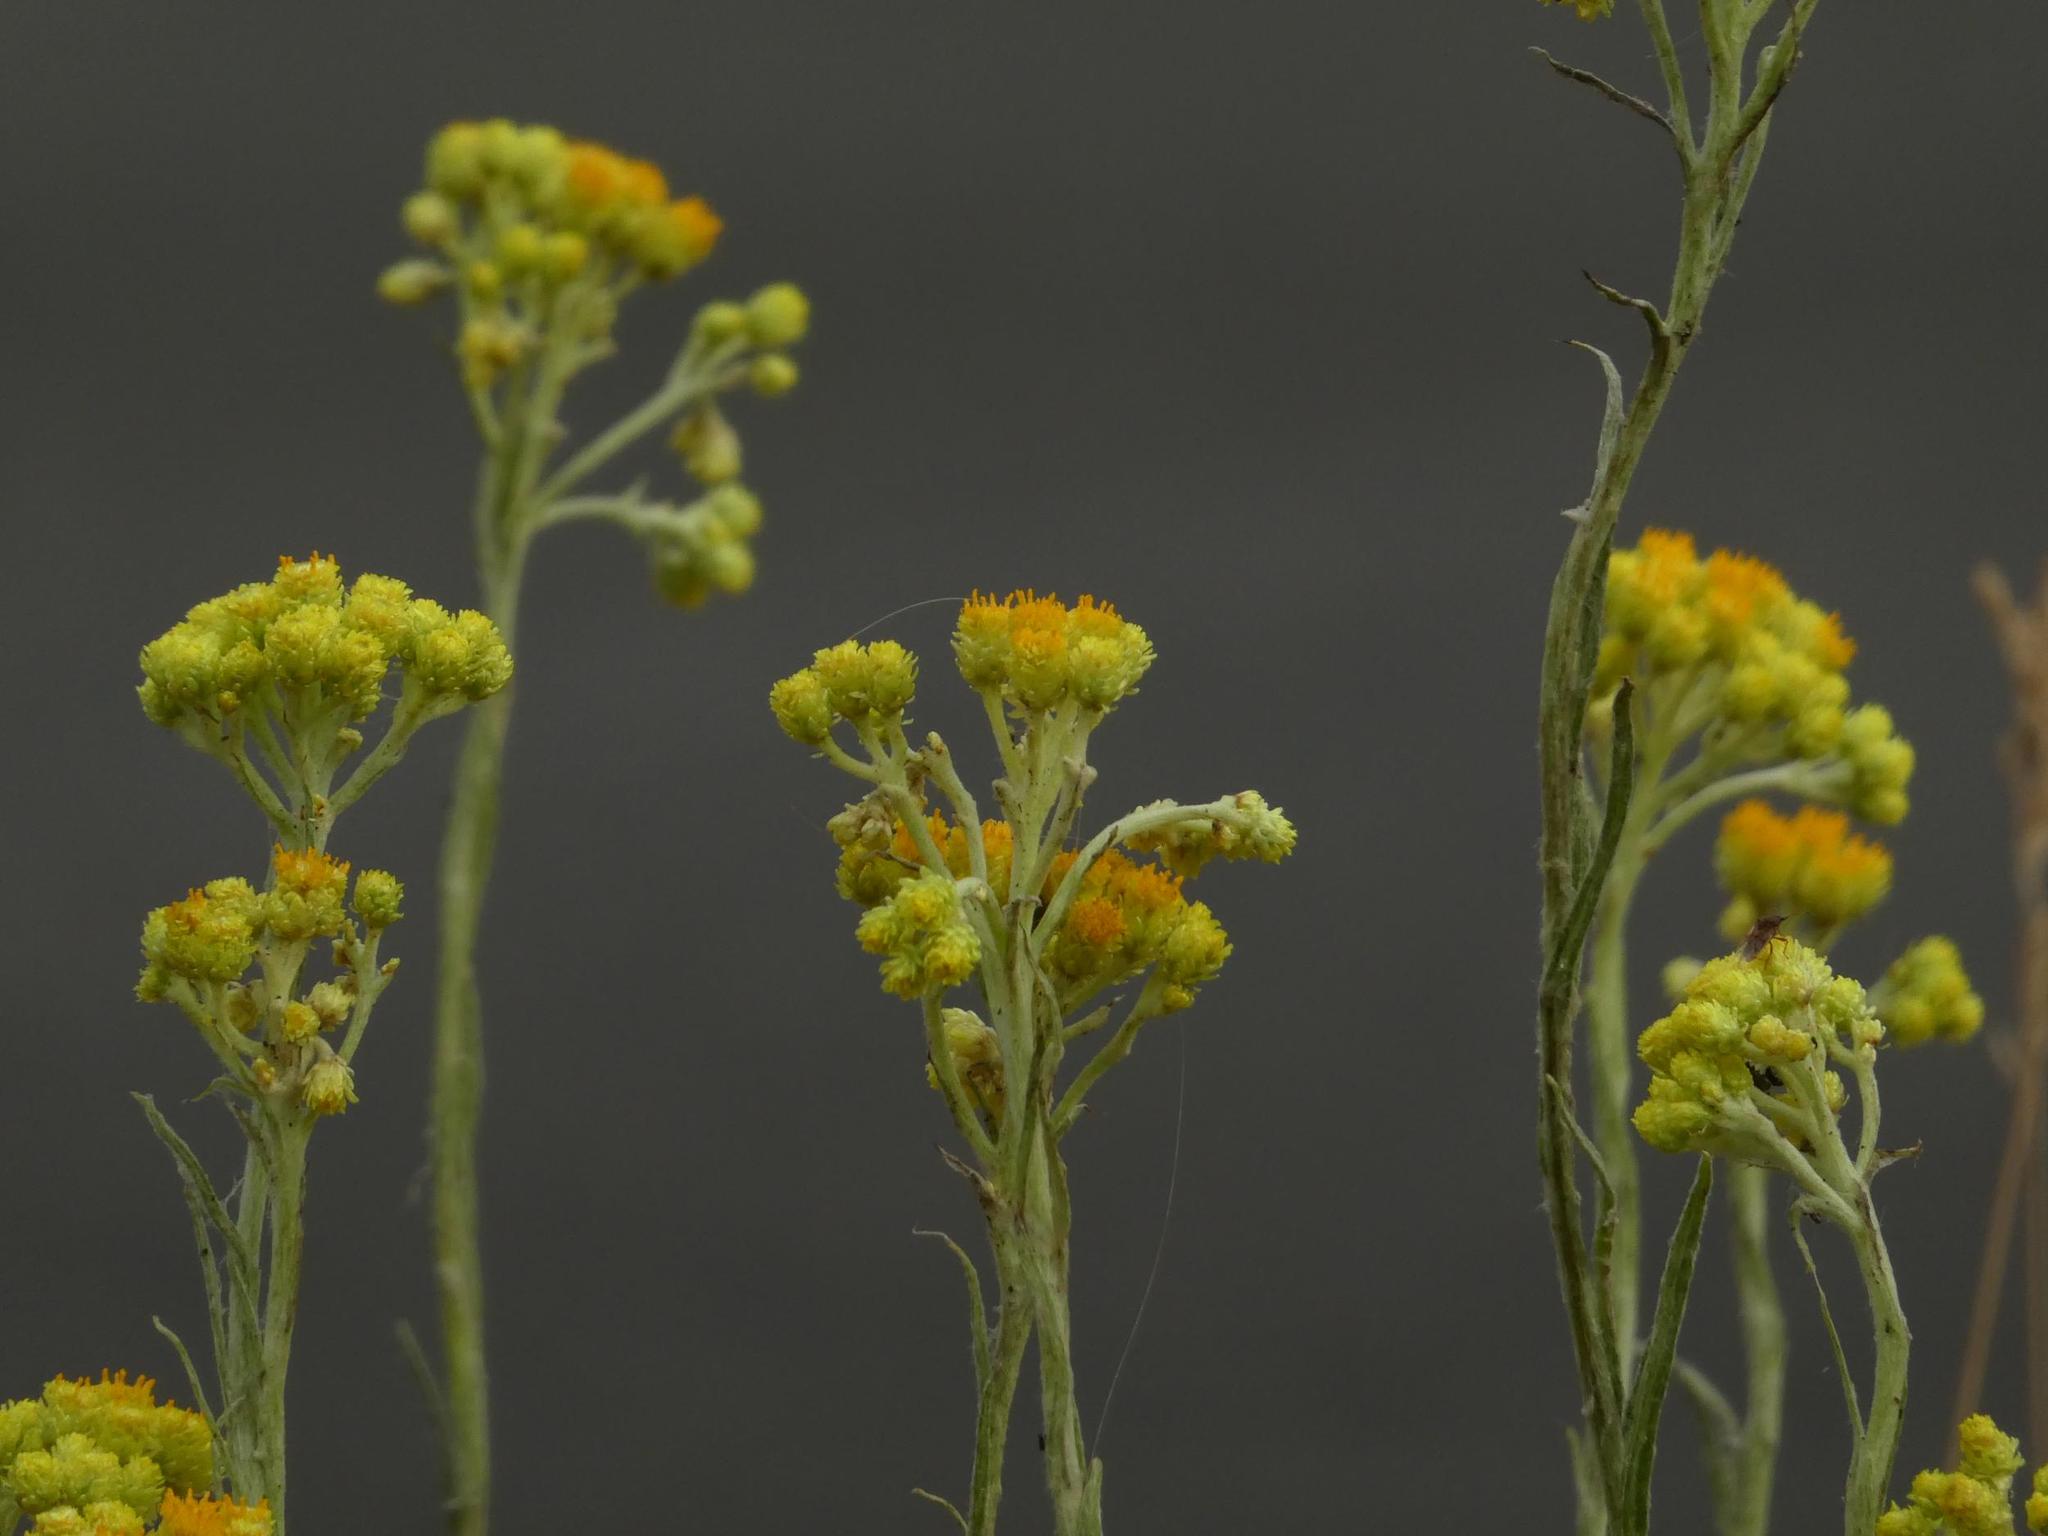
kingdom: Plantae
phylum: Tracheophyta
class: Magnoliopsida
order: Asterales
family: Asteraceae
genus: Helichrysum
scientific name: Helichrysum arenarium
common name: Strawflower
